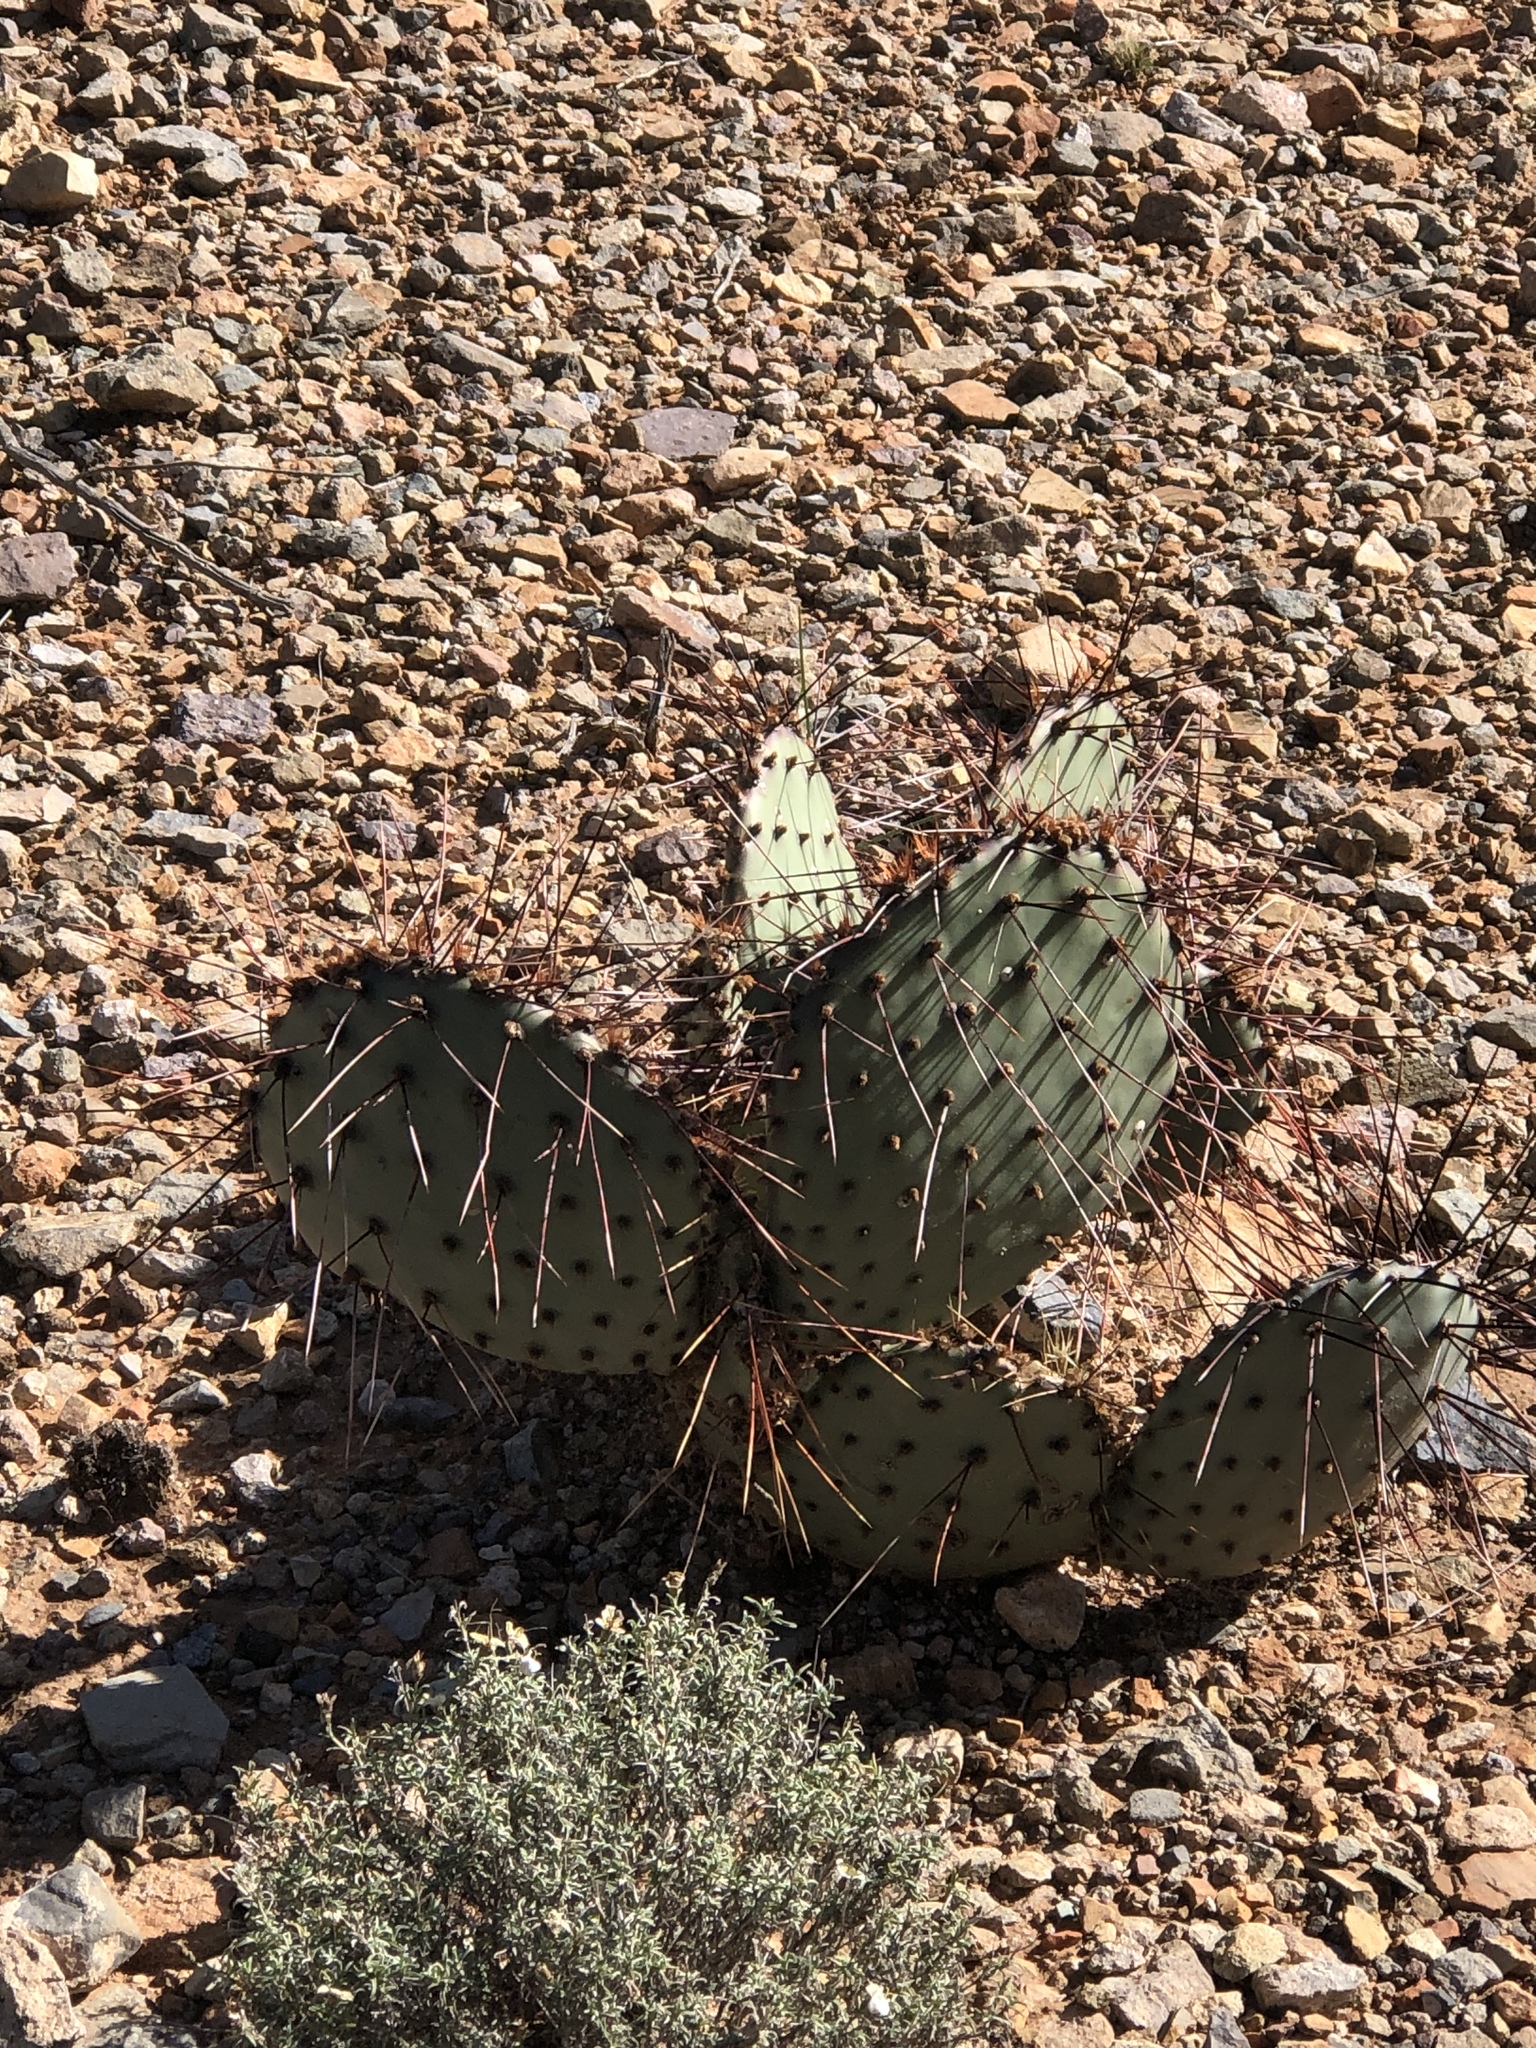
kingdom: Plantae
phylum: Tracheophyta
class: Magnoliopsida
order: Caryophyllales
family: Cactaceae
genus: Opuntia
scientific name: Opuntia macrocentra
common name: Purple prickly-pear
